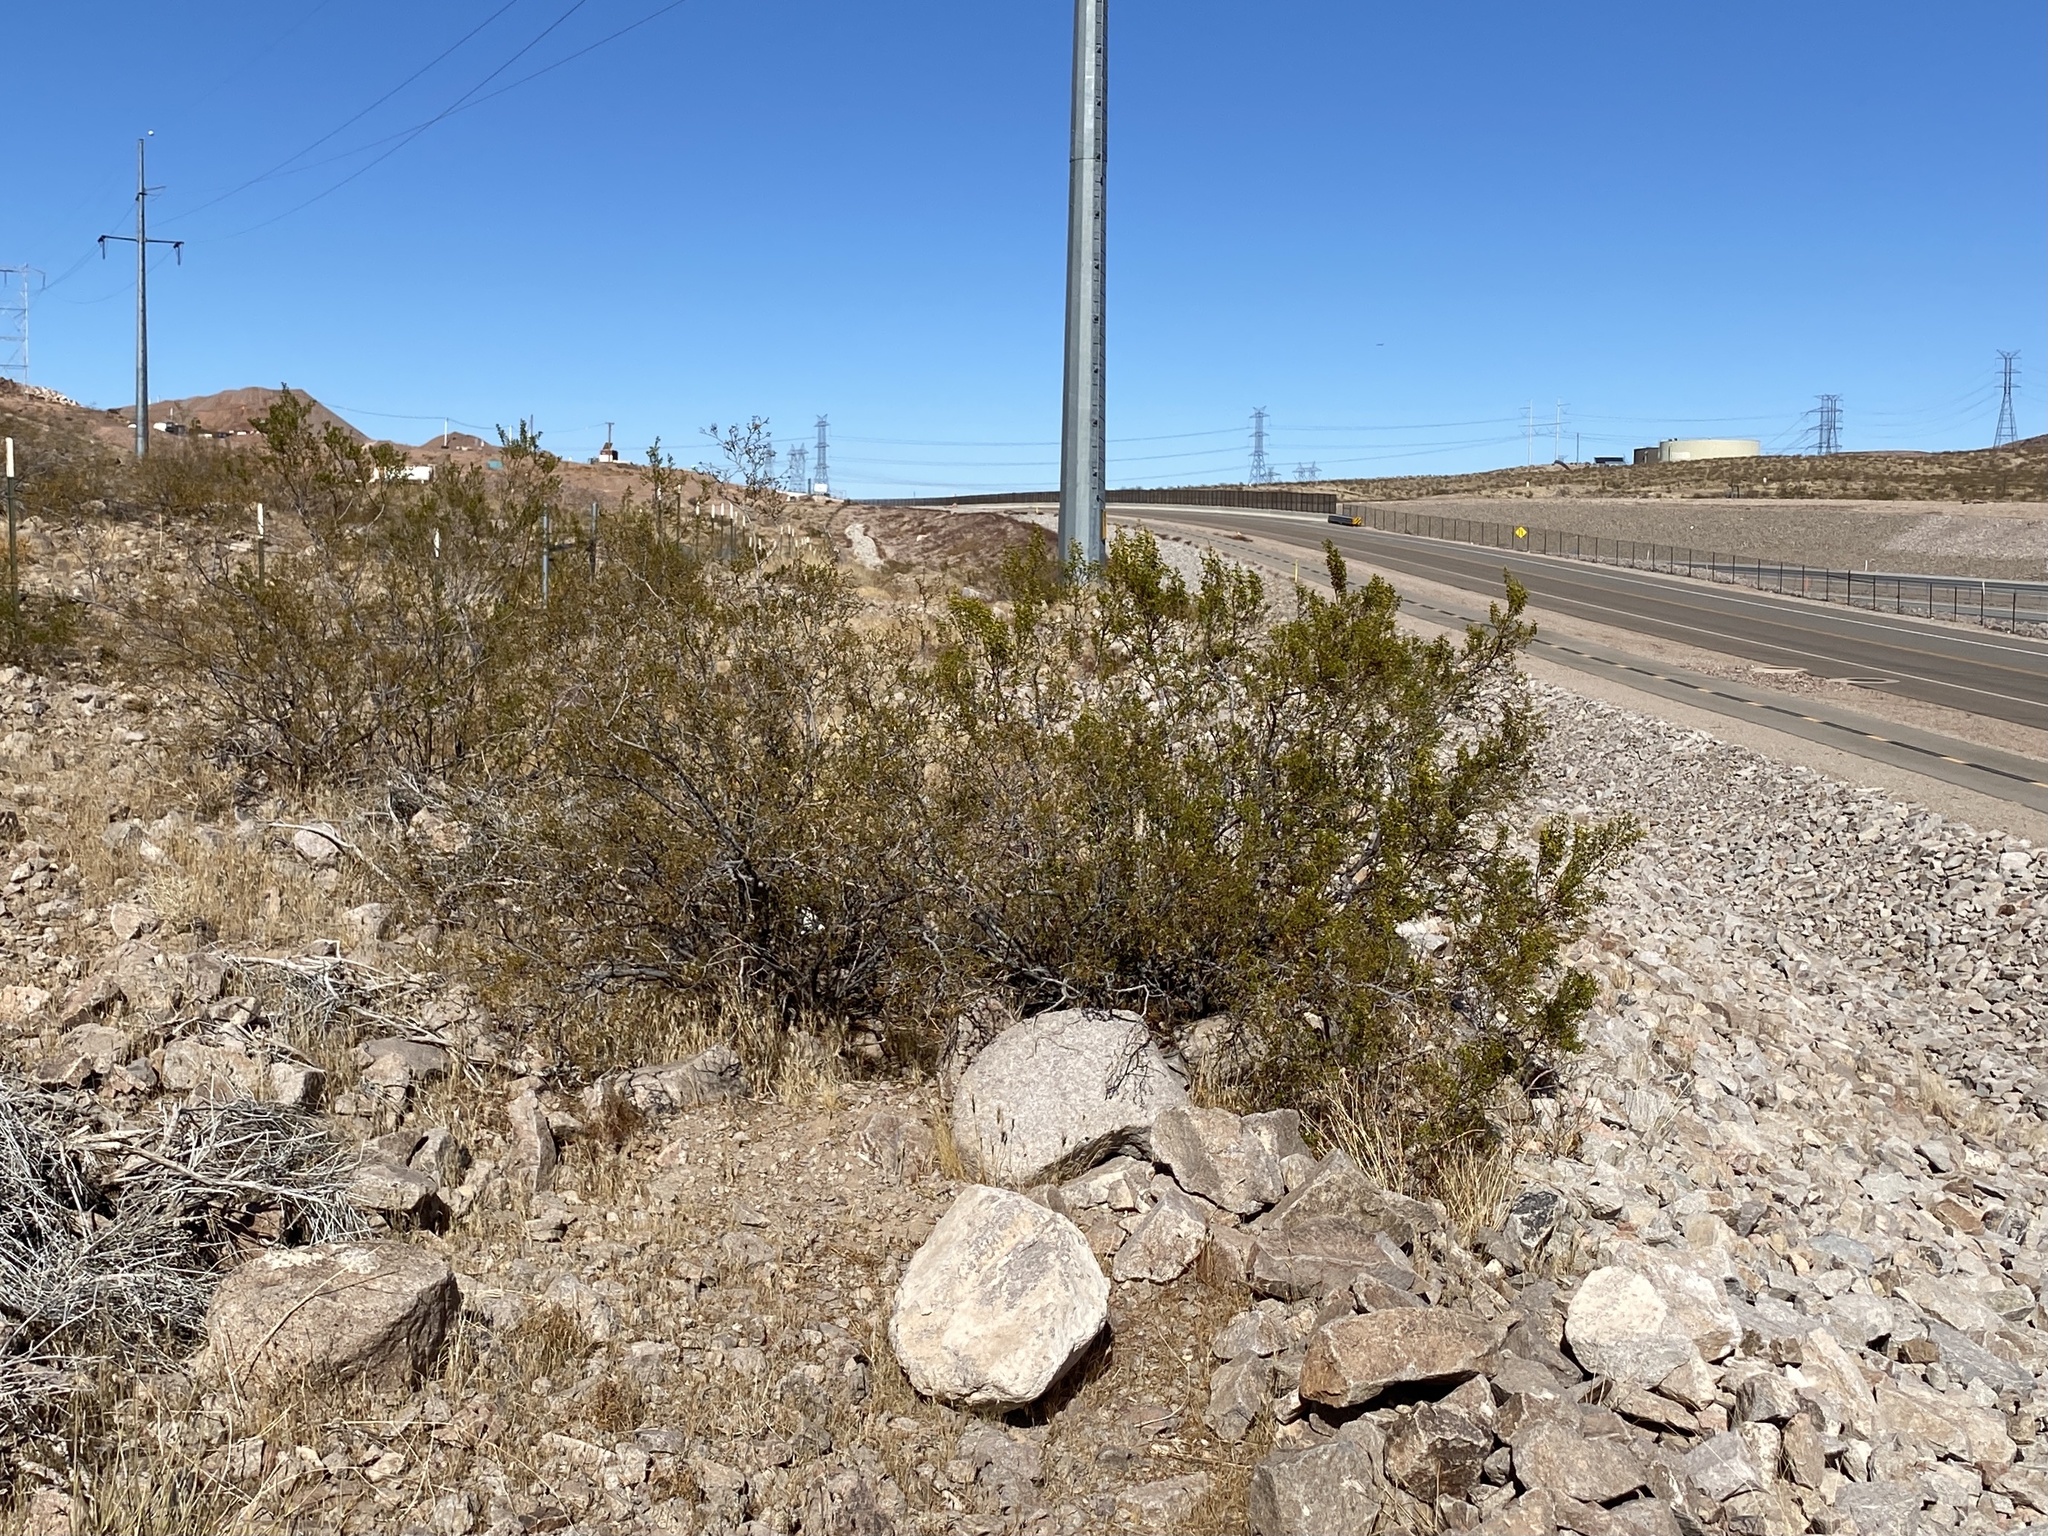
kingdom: Plantae
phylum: Tracheophyta
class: Magnoliopsida
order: Zygophyllales
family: Zygophyllaceae
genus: Larrea
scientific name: Larrea tridentata
